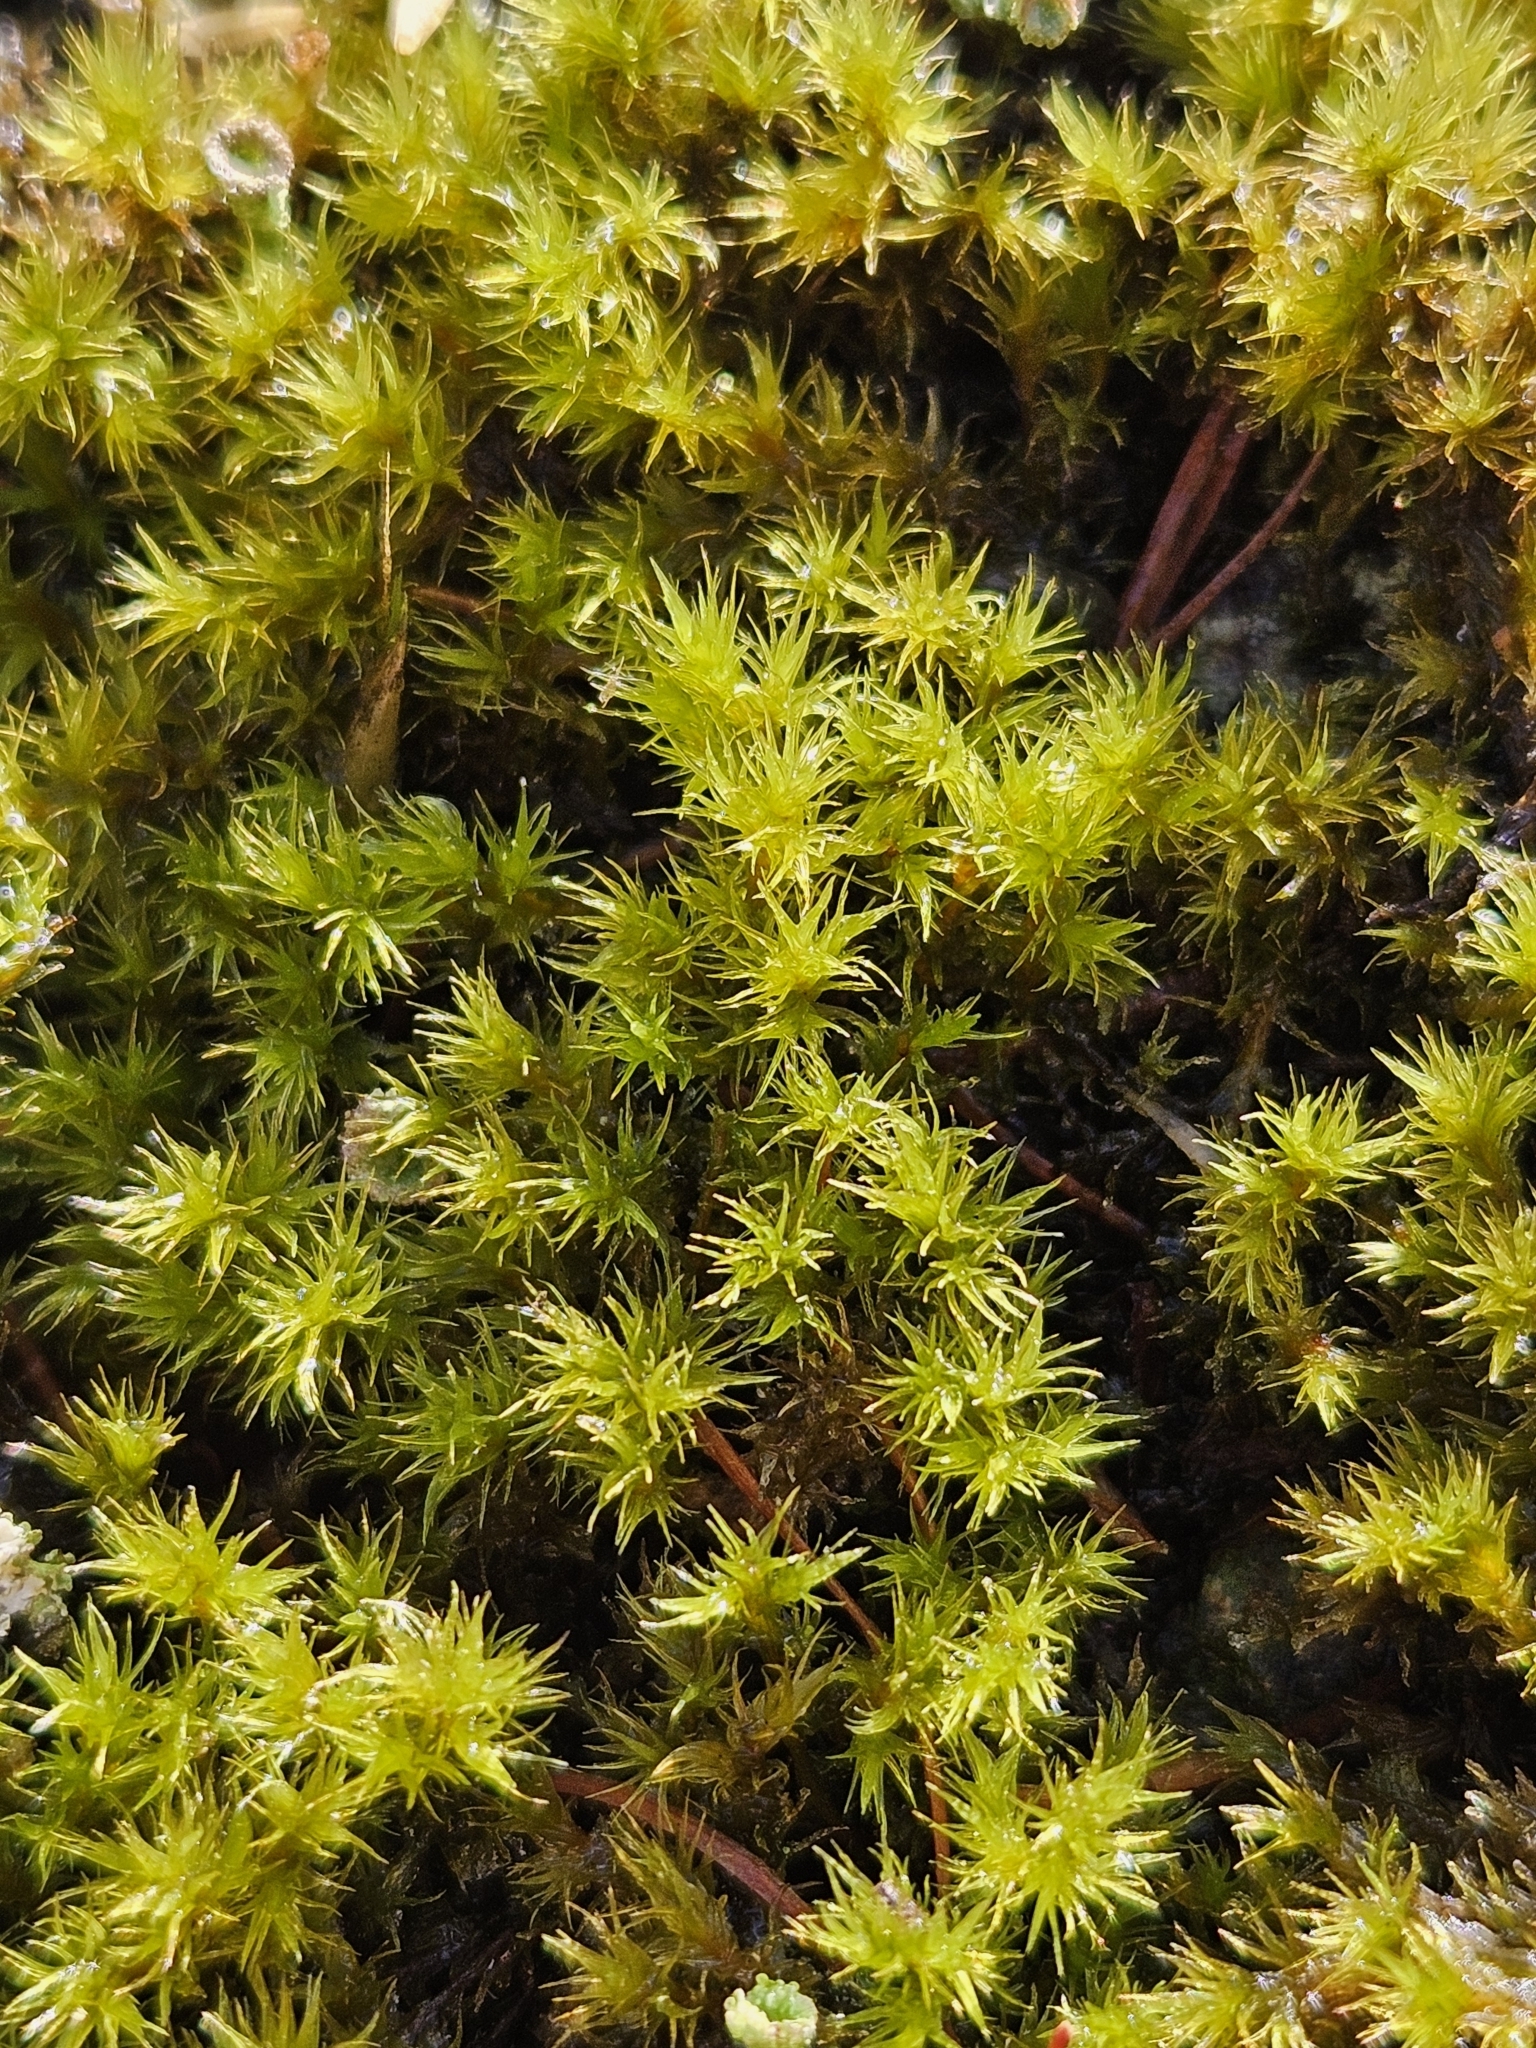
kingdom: Plantae
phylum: Bryophyta
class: Bryopsida
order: Grimmiales
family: Grimmiaceae
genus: Dilutineuron
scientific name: Dilutineuron fasciculare
